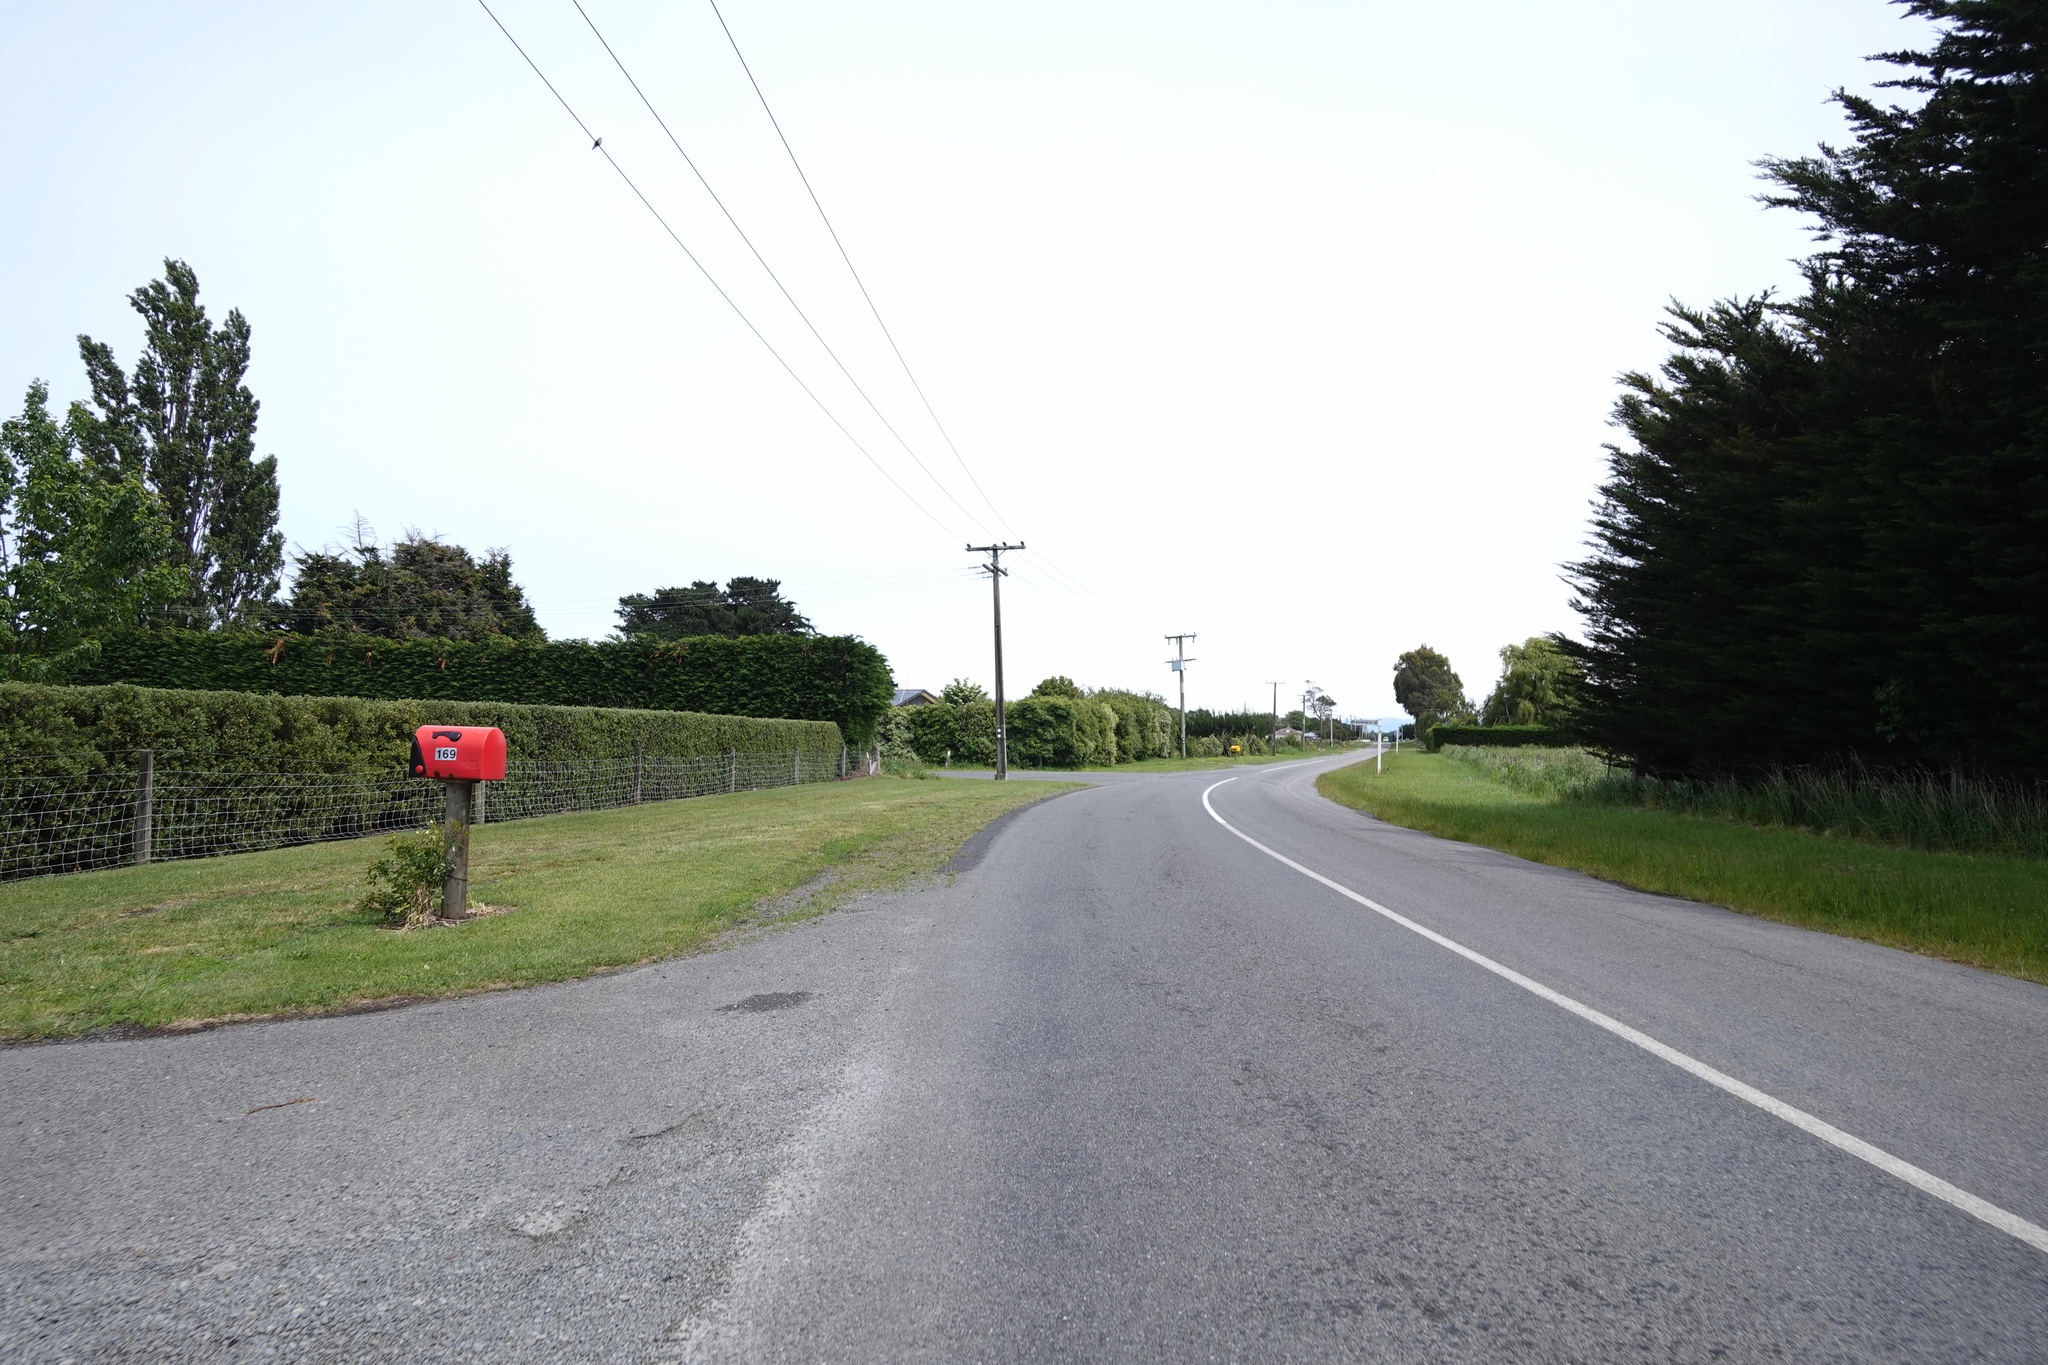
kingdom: Animalia
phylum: Chordata
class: Aves
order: Cuculiformes
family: Cuculidae
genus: Chrysococcyx
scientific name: Chrysococcyx lucidus
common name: Shining bronze cuckoo
